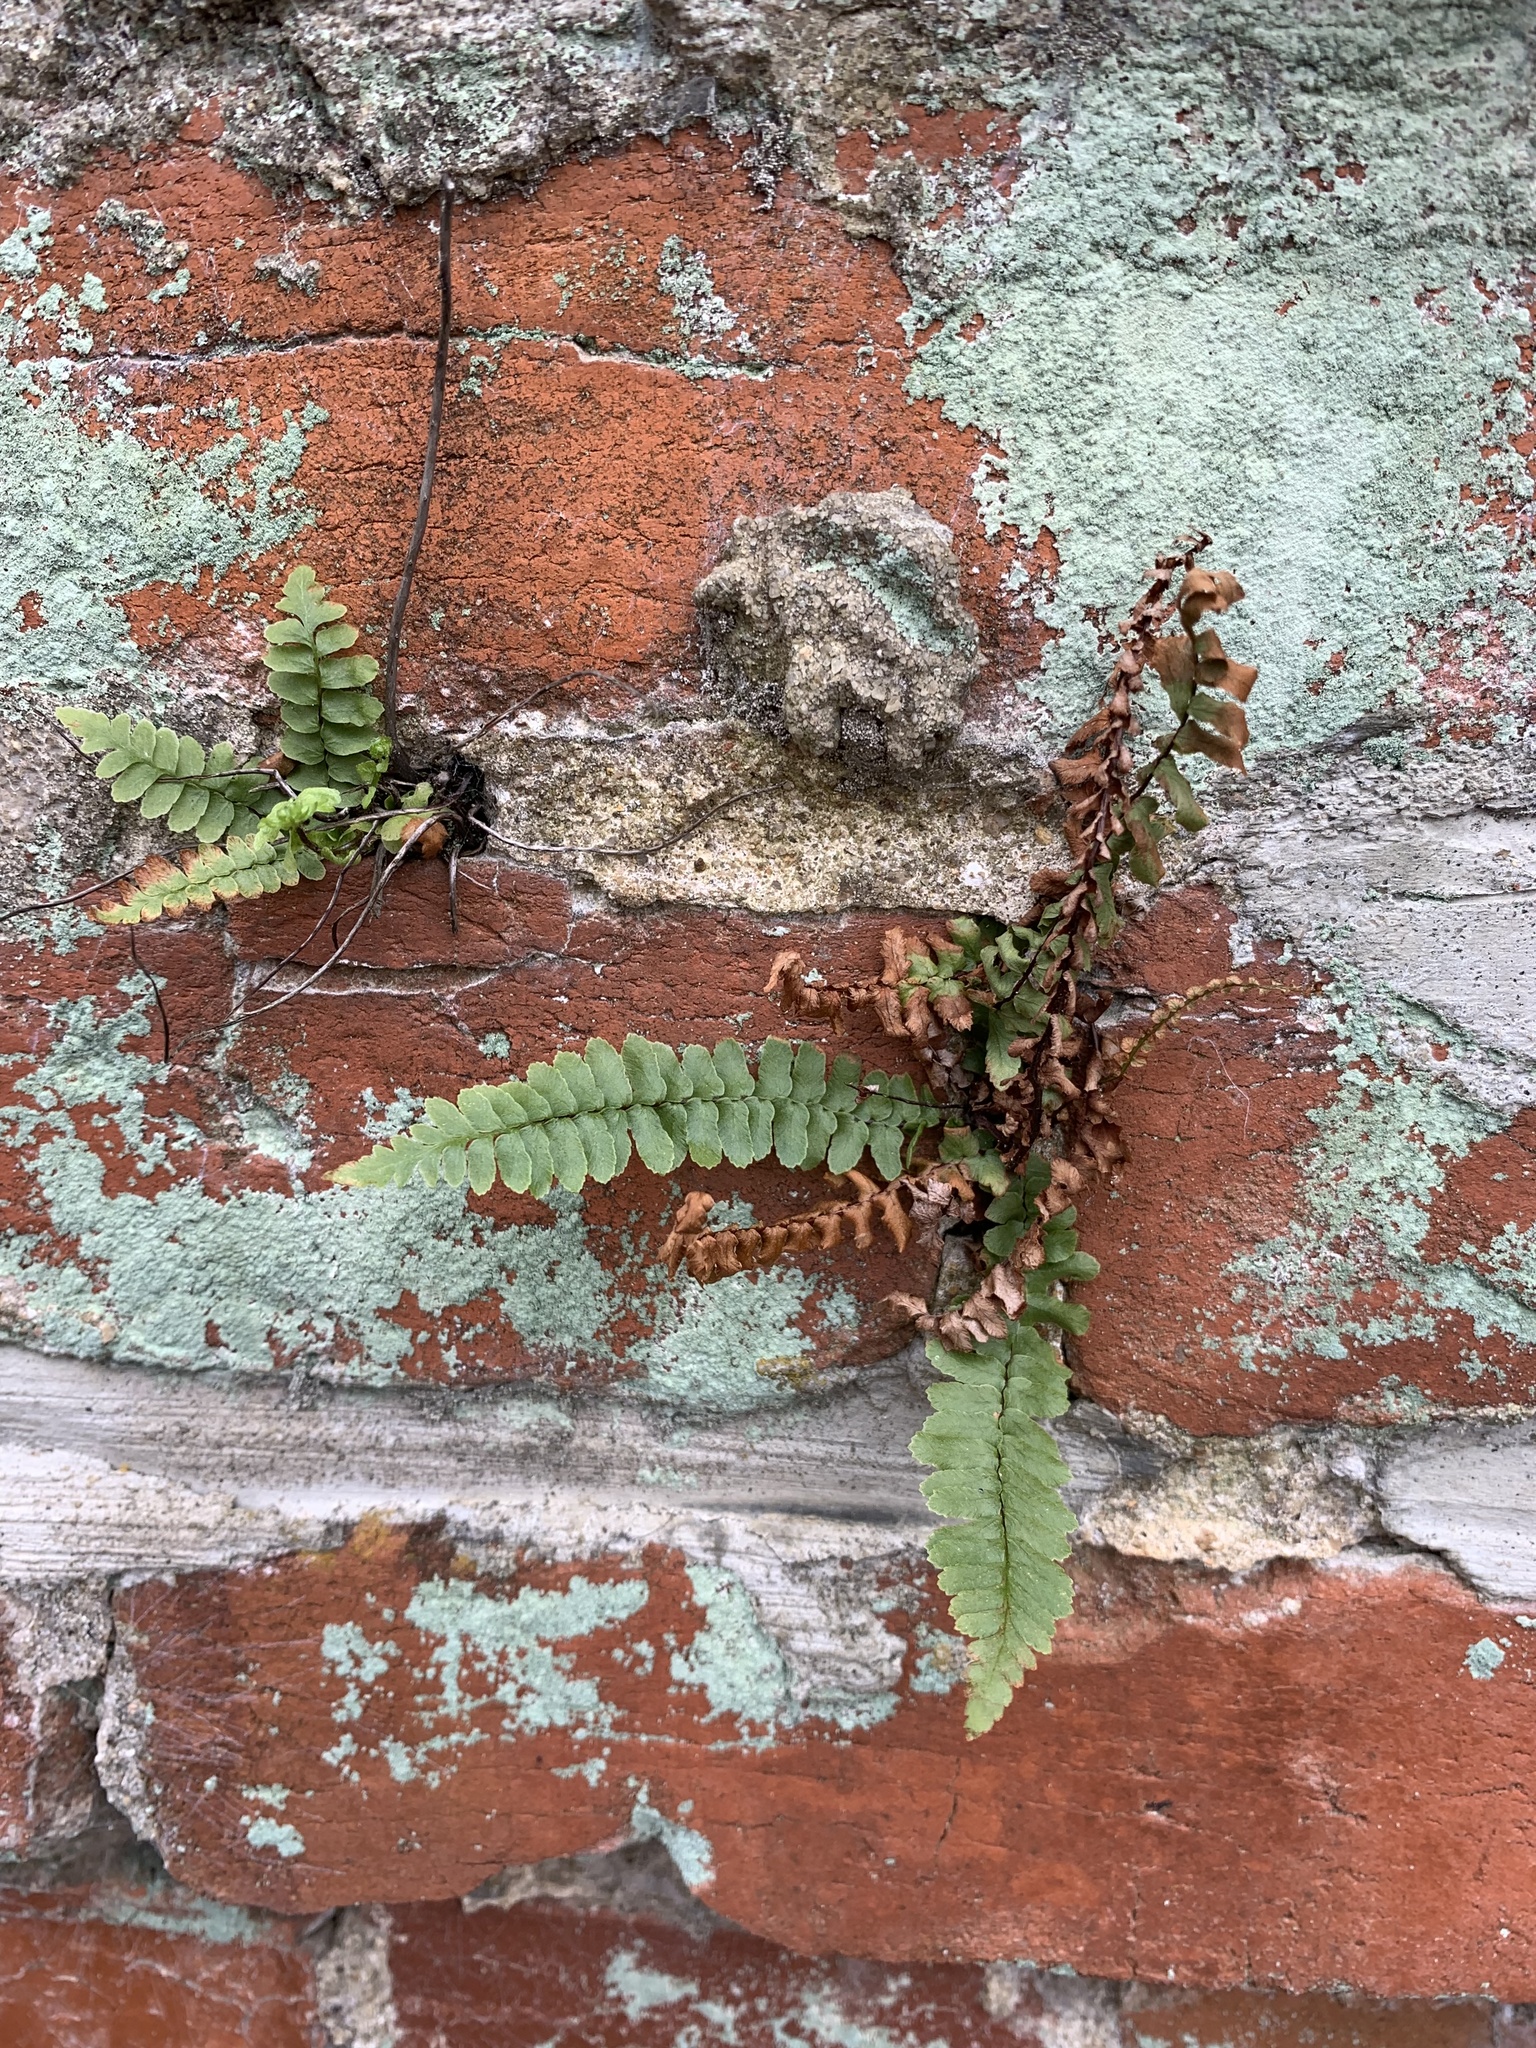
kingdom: Plantae
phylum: Tracheophyta
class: Polypodiopsida
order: Polypodiales
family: Aspleniaceae
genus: Asplenium
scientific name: Asplenium platyneuron
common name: Ebony spleenwort
